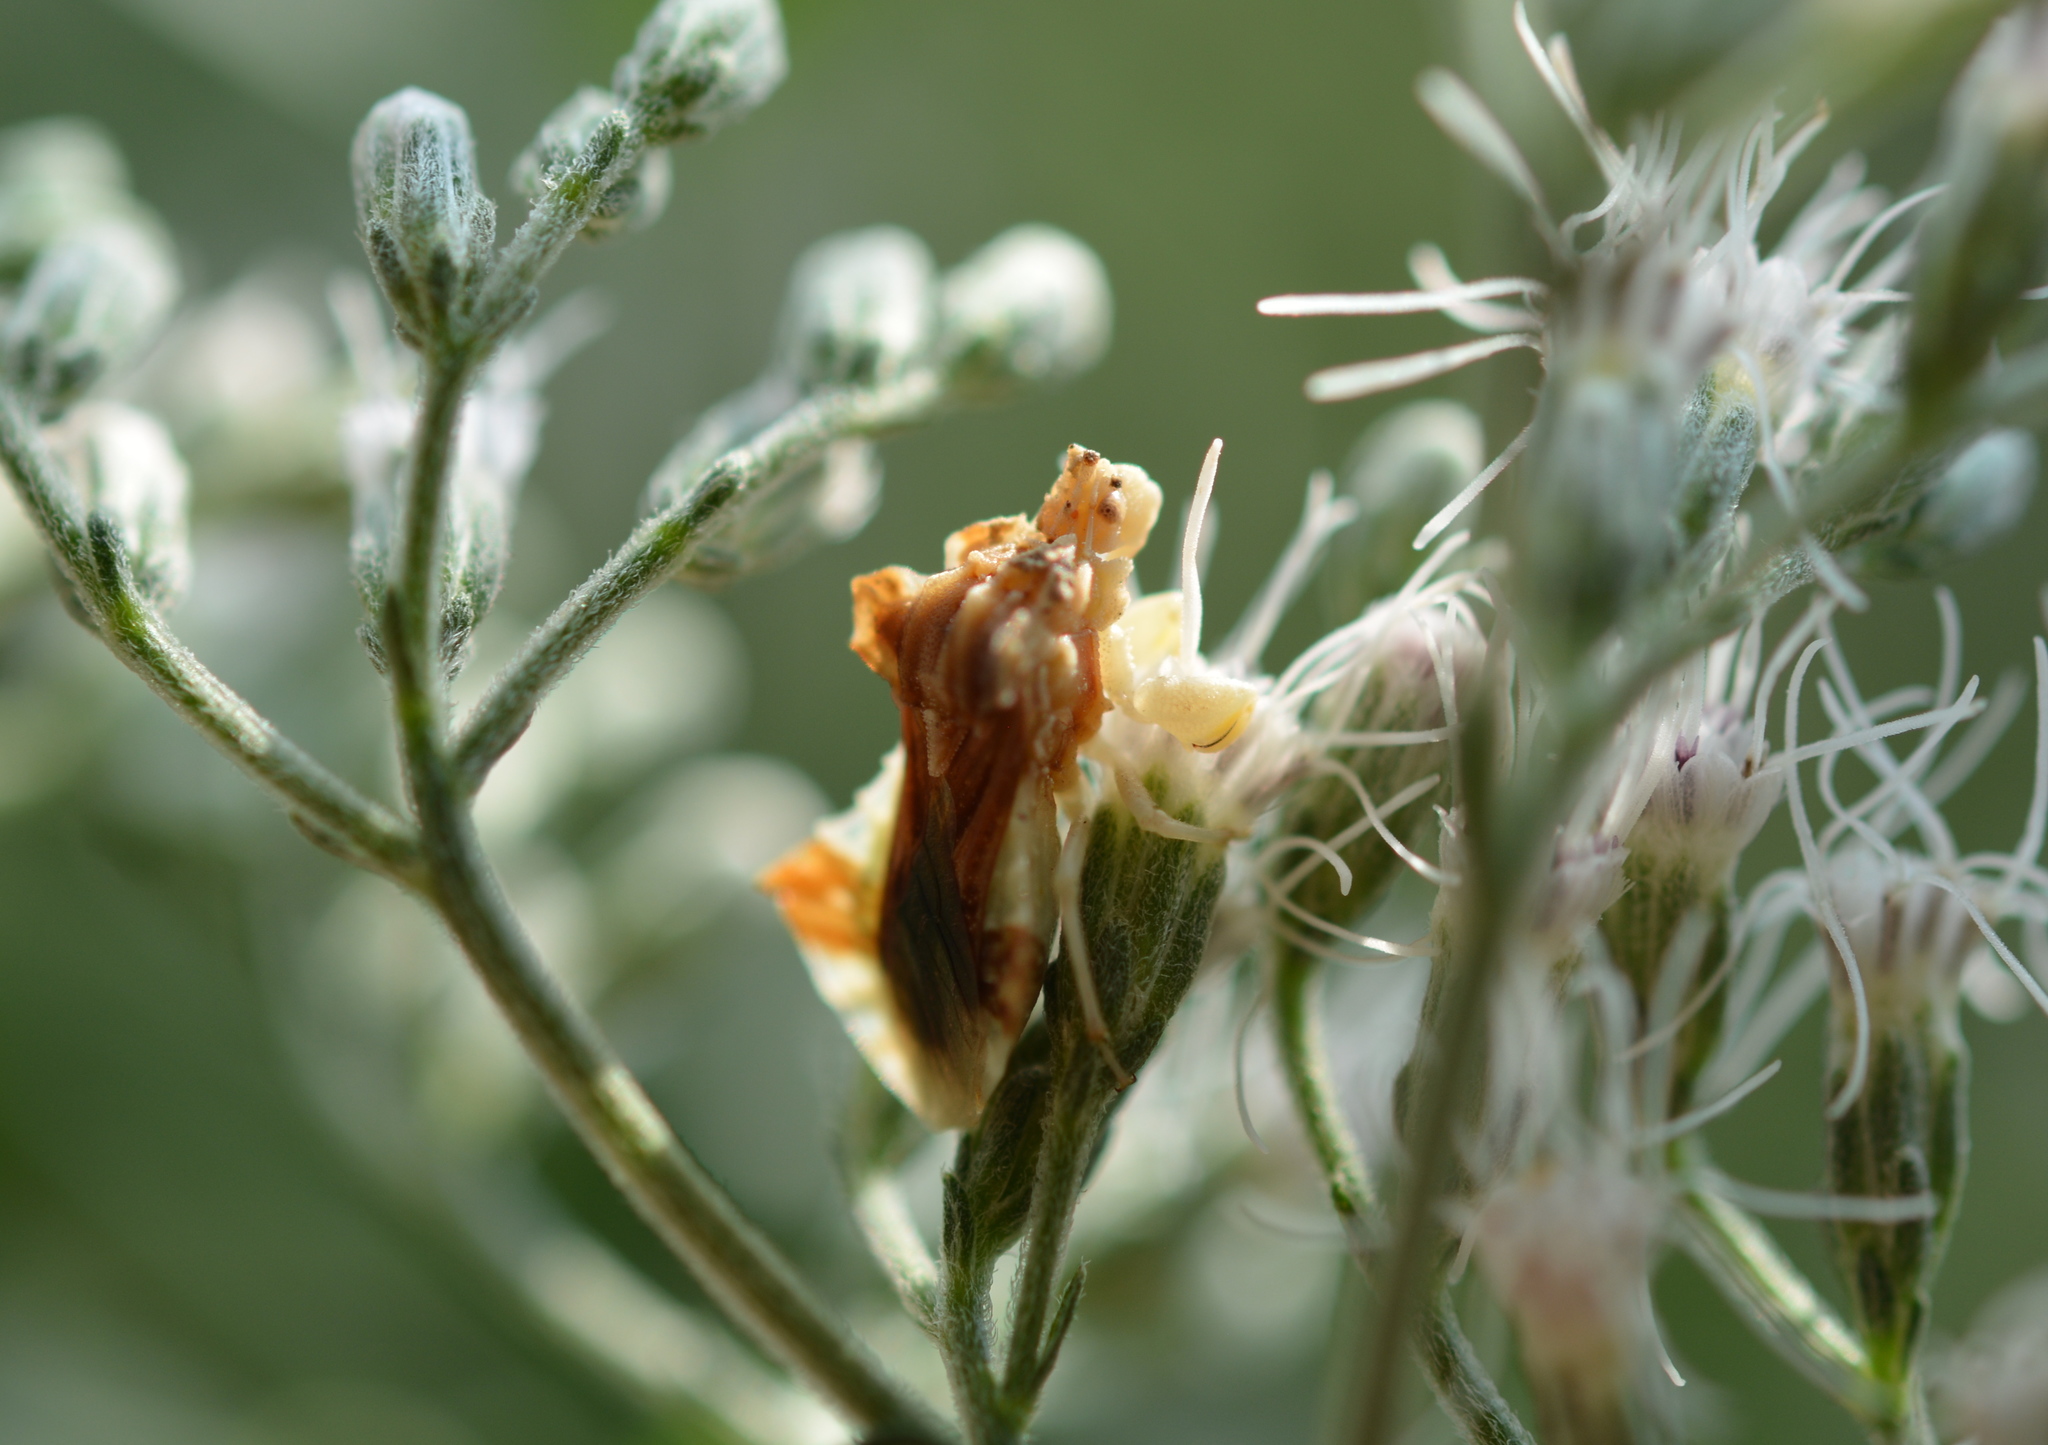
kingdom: Animalia
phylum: Arthropoda
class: Insecta
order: Hemiptera
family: Reduviidae
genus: Phymata
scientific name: Phymata fasciata
